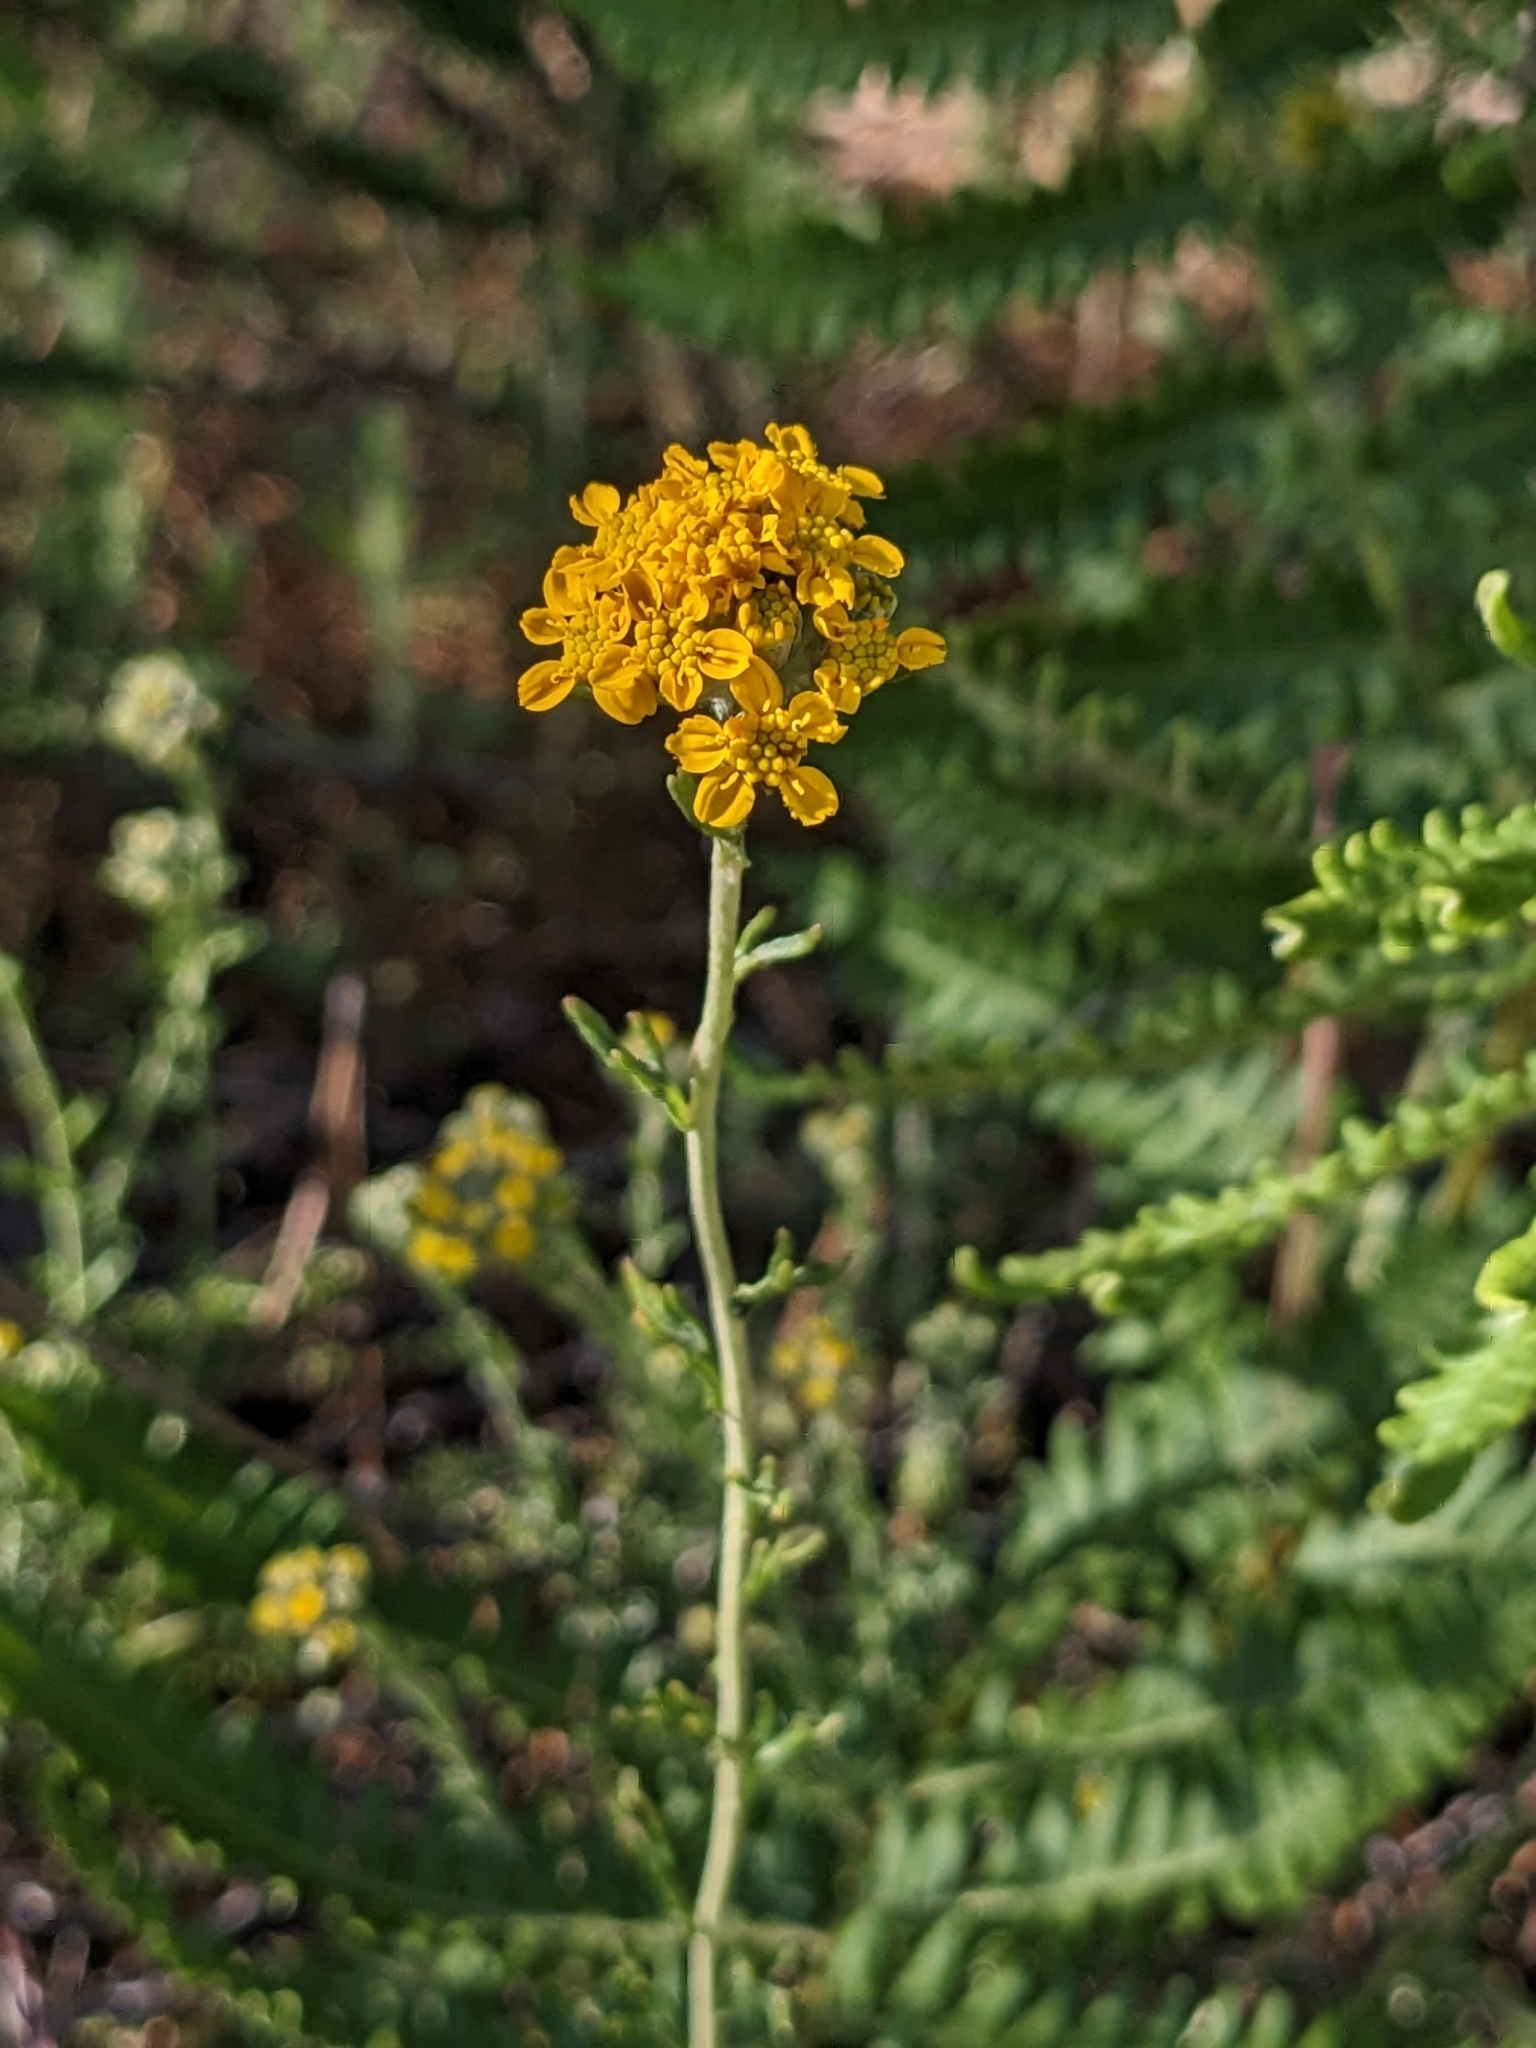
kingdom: Plantae
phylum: Tracheophyta
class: Magnoliopsida
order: Asterales
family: Asteraceae
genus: Eriophyllum
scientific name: Eriophyllum confertiflorum
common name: Golden-yarrow
